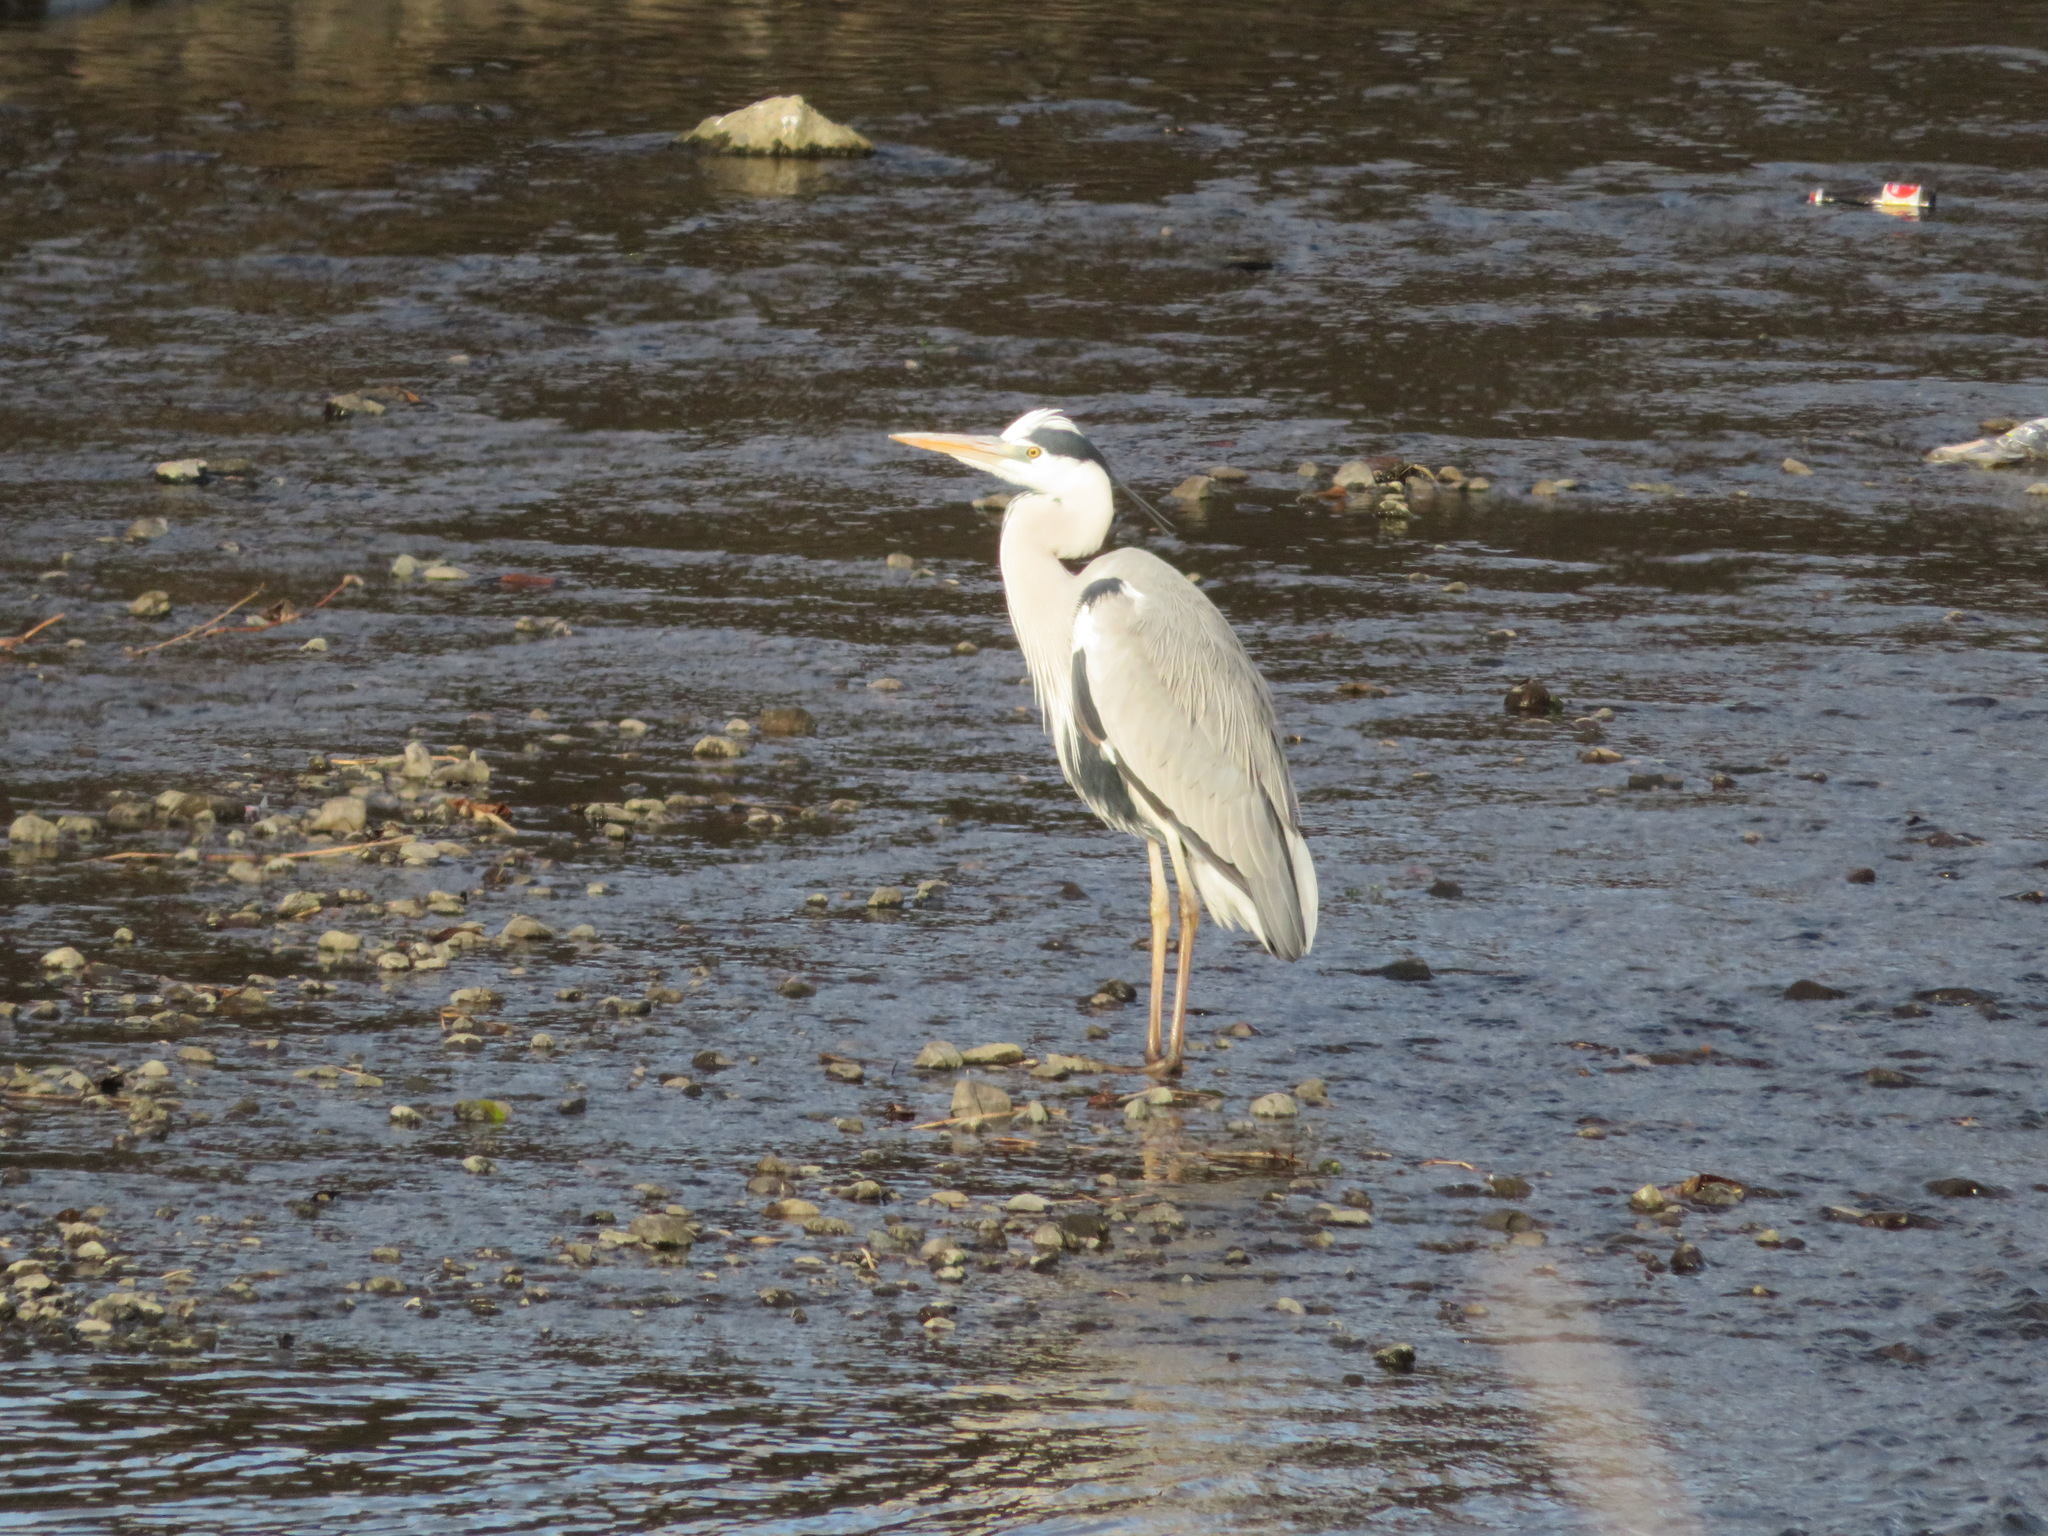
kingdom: Animalia
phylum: Chordata
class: Aves
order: Pelecaniformes
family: Ardeidae
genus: Ardea
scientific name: Ardea cinerea
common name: Grey heron
